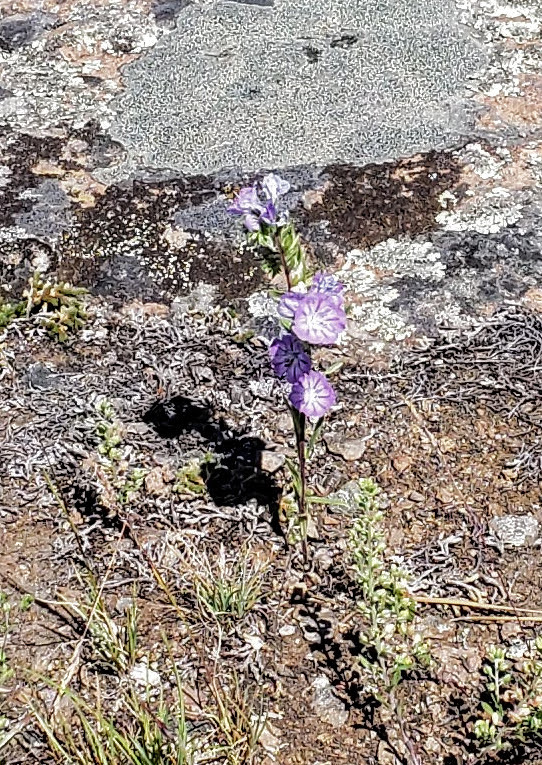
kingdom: Plantae
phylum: Tracheophyta
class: Magnoliopsida
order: Boraginales
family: Hydrophyllaceae
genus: Phacelia
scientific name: Phacelia linearis
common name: Linear-leaved phacelia
